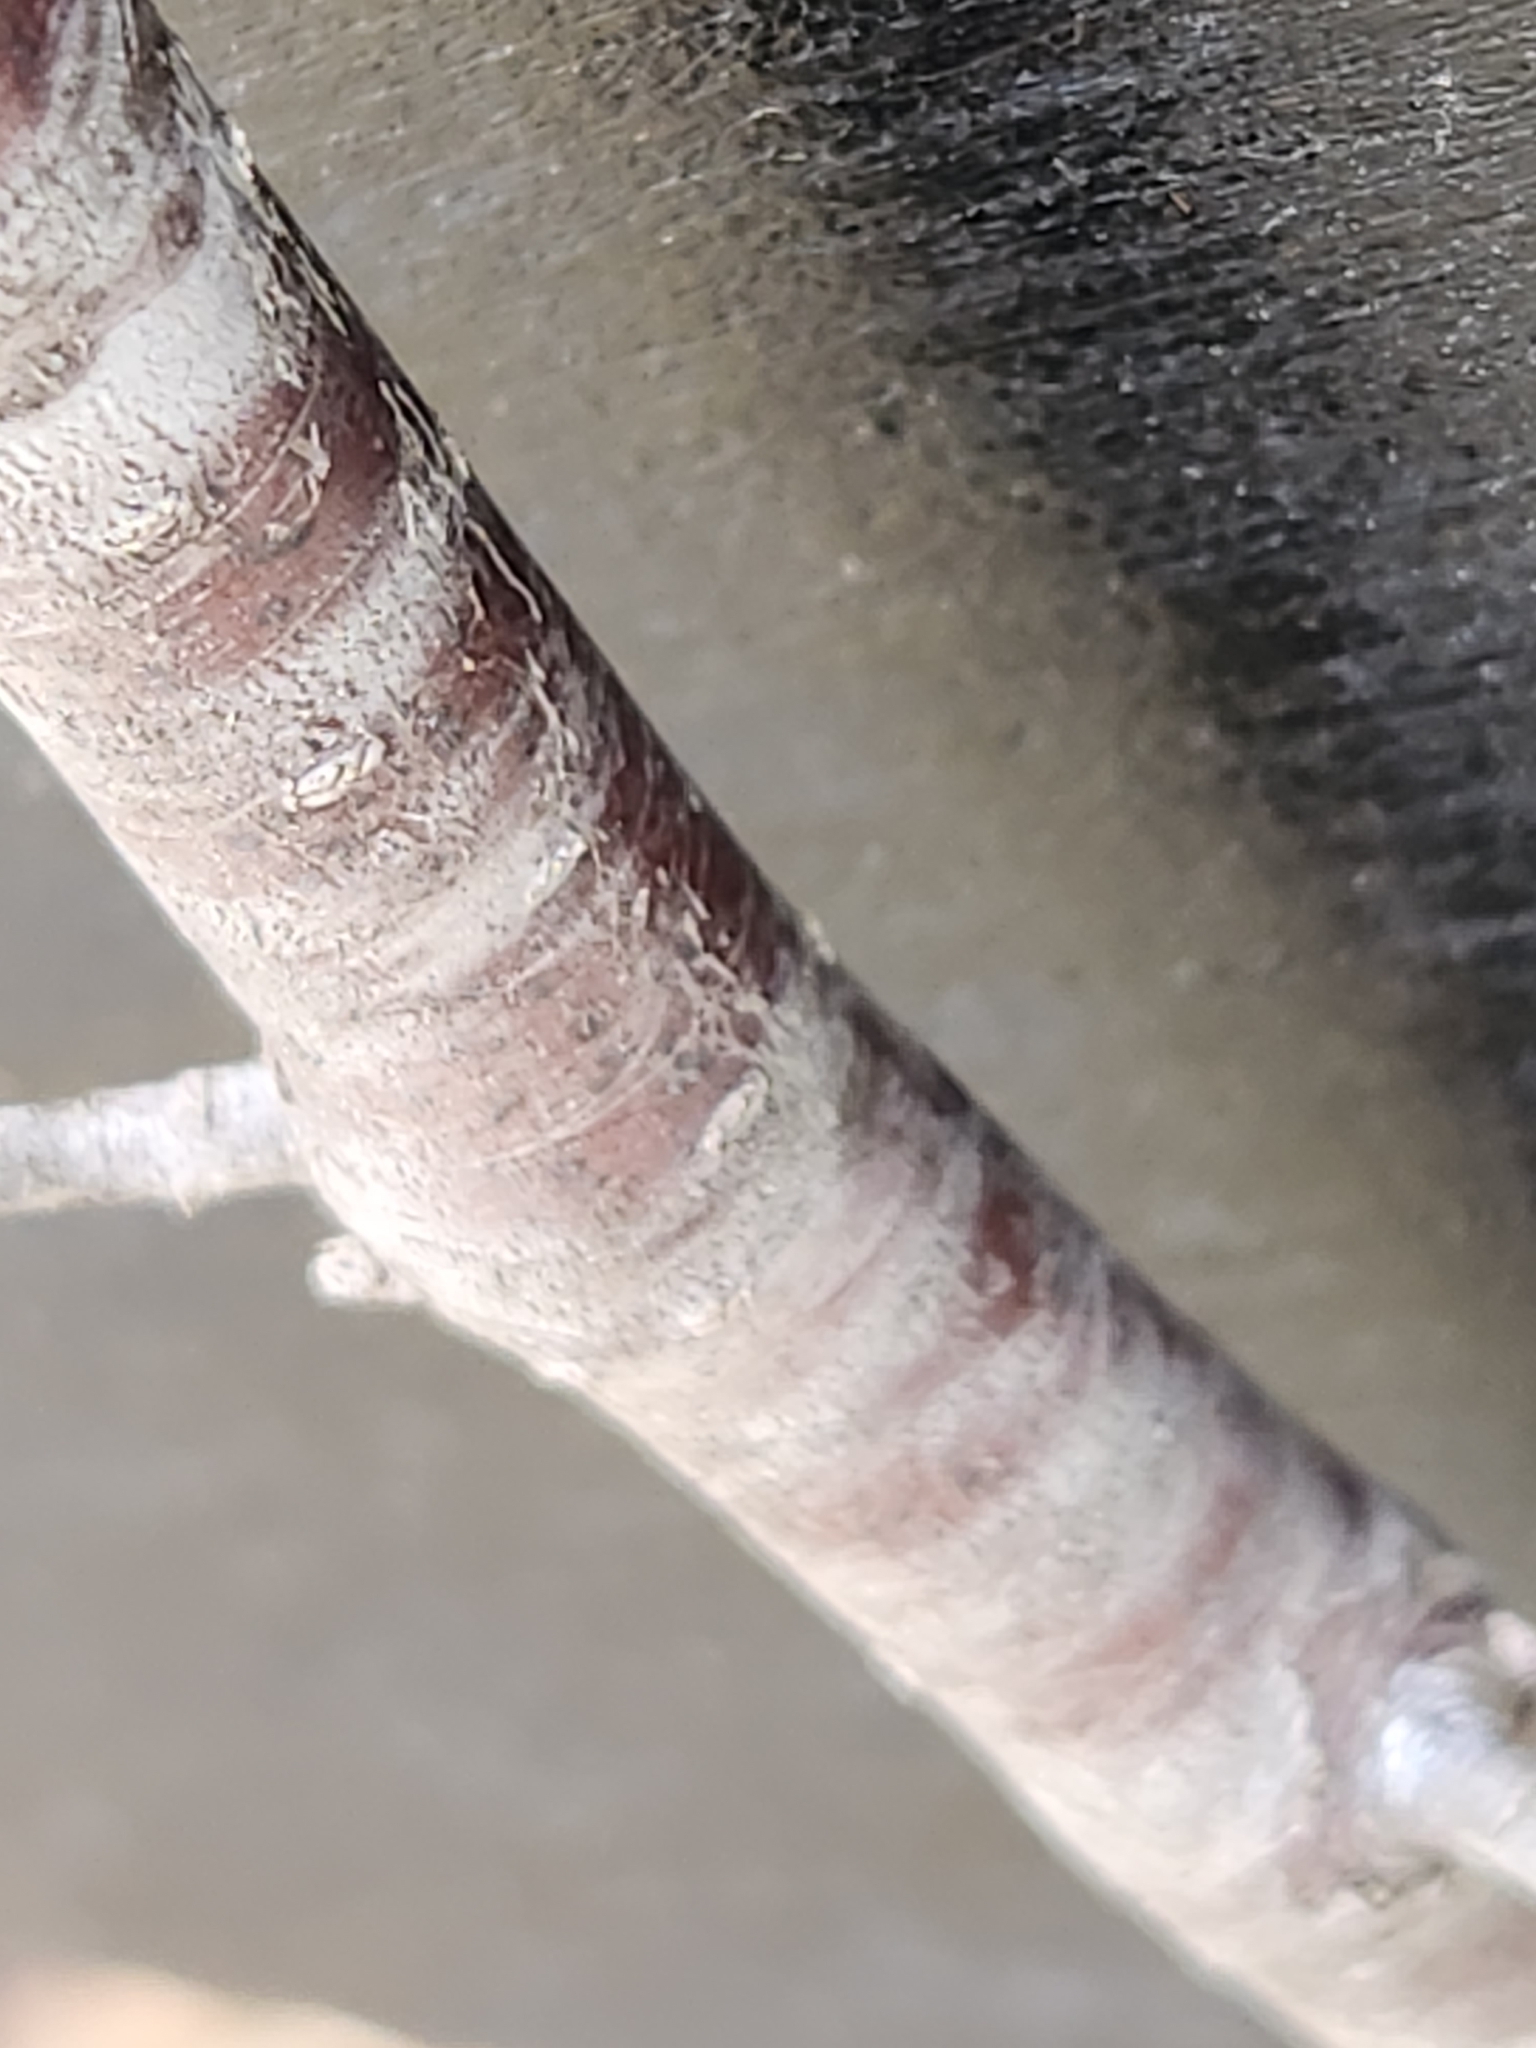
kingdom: Plantae
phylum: Tracheophyta
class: Magnoliopsida
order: Rosales
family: Rosaceae
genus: Prunus
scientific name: Prunus murrayana
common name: Murray plum
